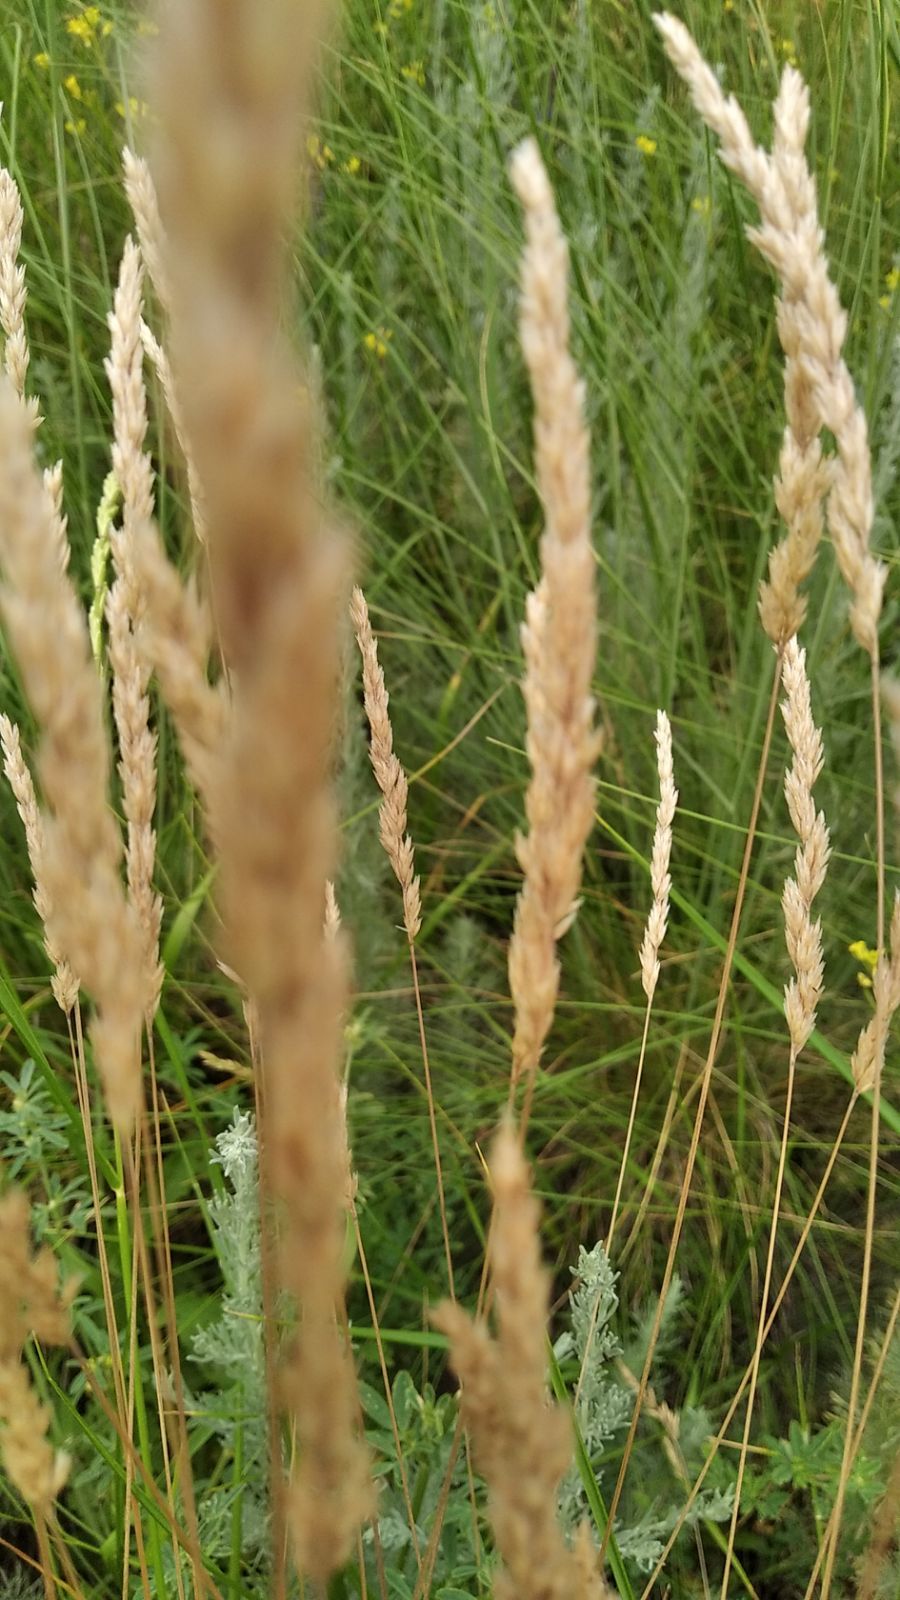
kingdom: Plantae
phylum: Tracheophyta
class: Liliopsida
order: Poales
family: Poaceae
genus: Koeleria
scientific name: Koeleria macrantha
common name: Crested hair-grass
